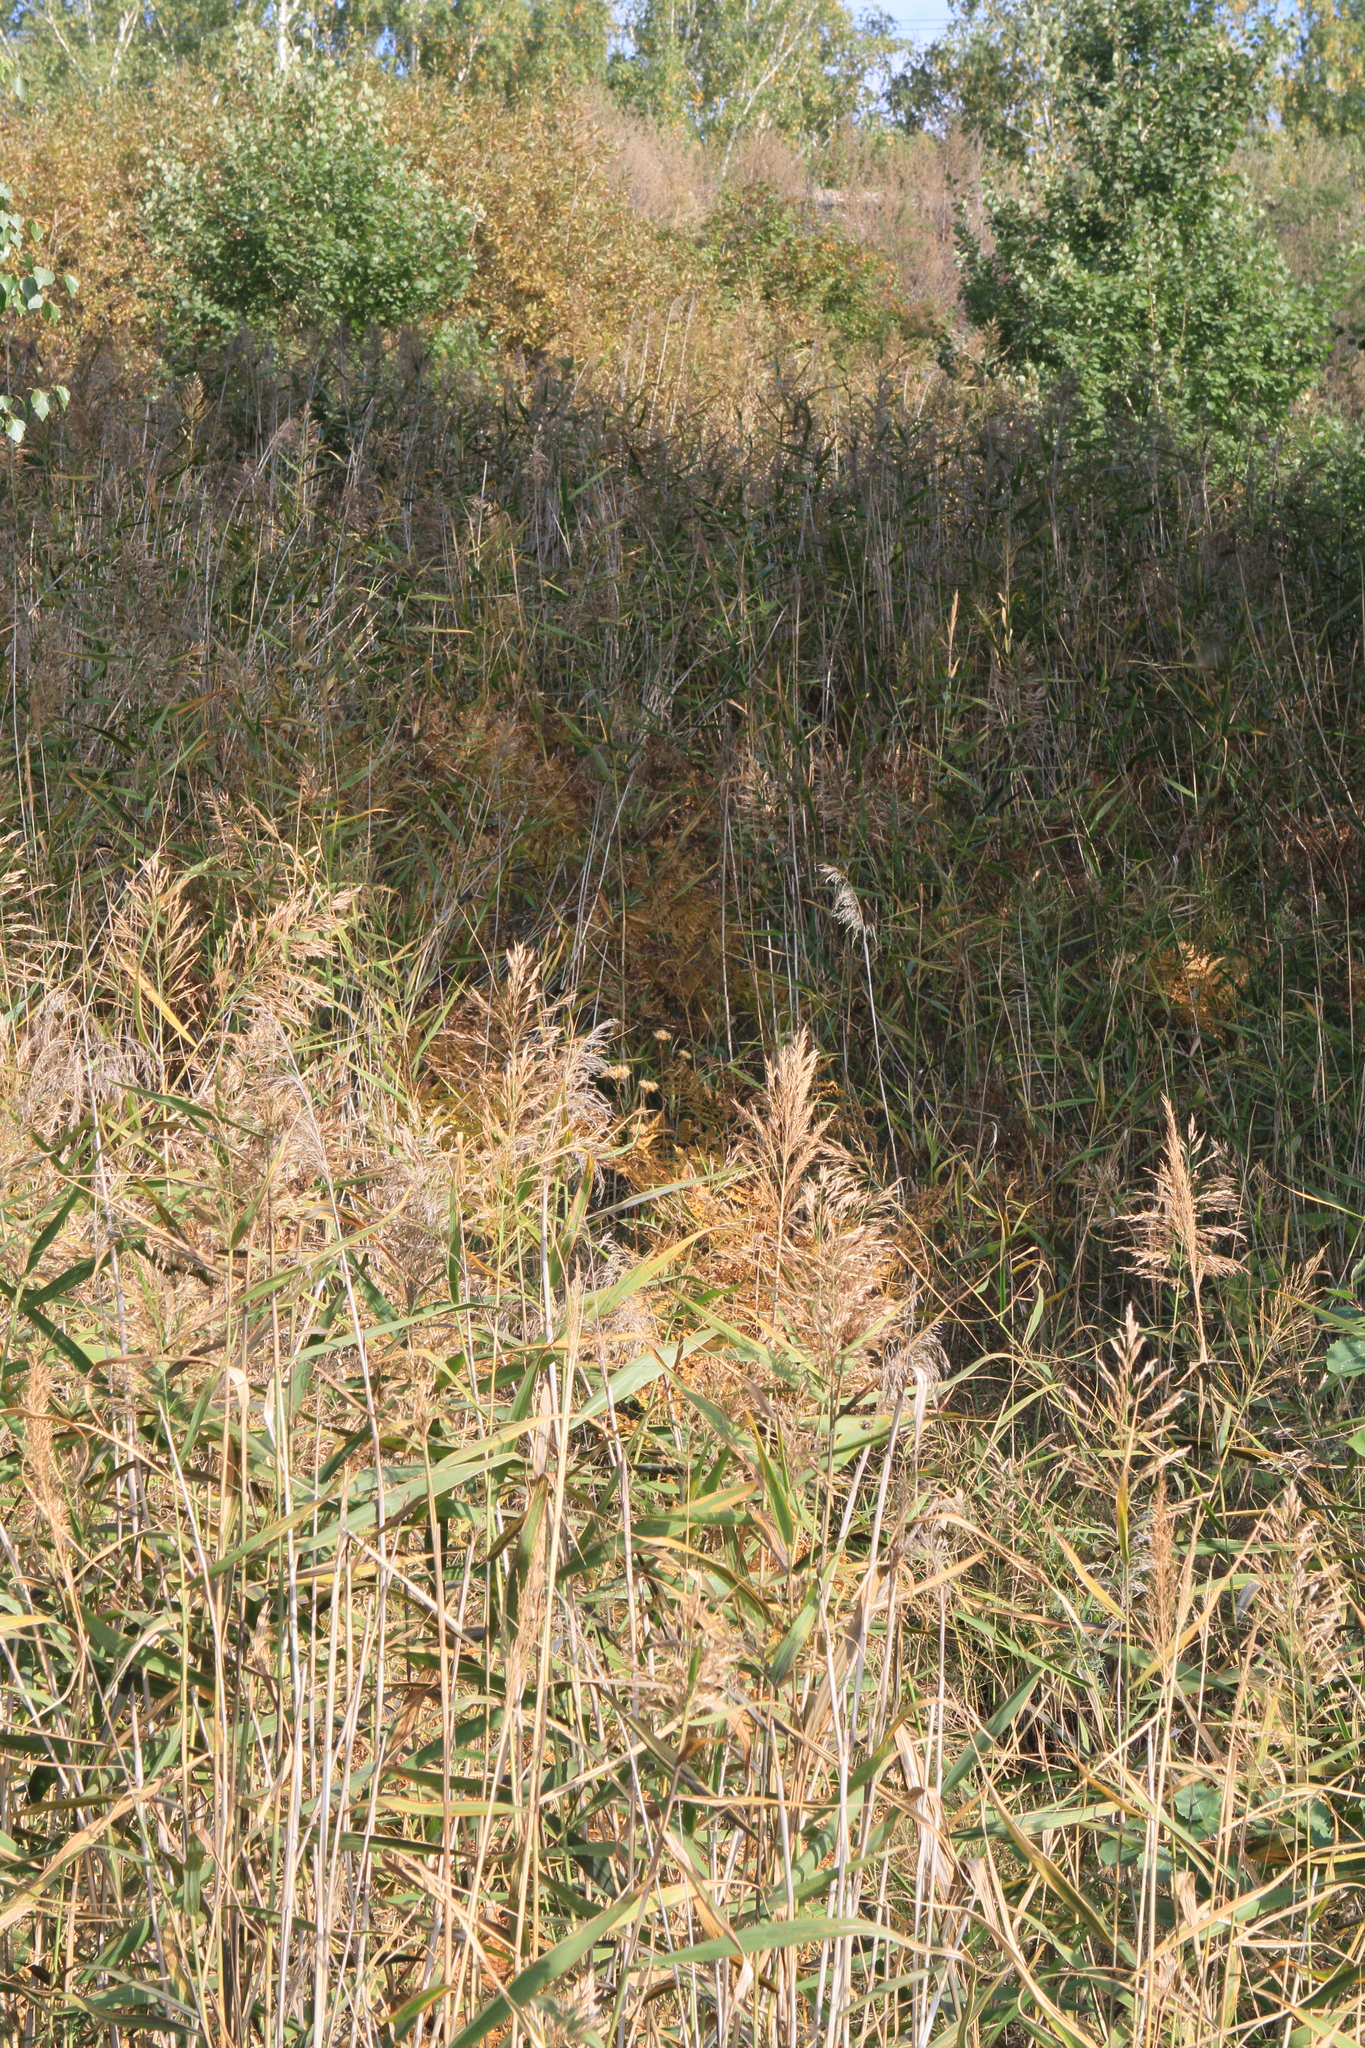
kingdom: Plantae
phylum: Tracheophyta
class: Liliopsida
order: Poales
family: Poaceae
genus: Phragmites
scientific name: Phragmites australis
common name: Common reed
